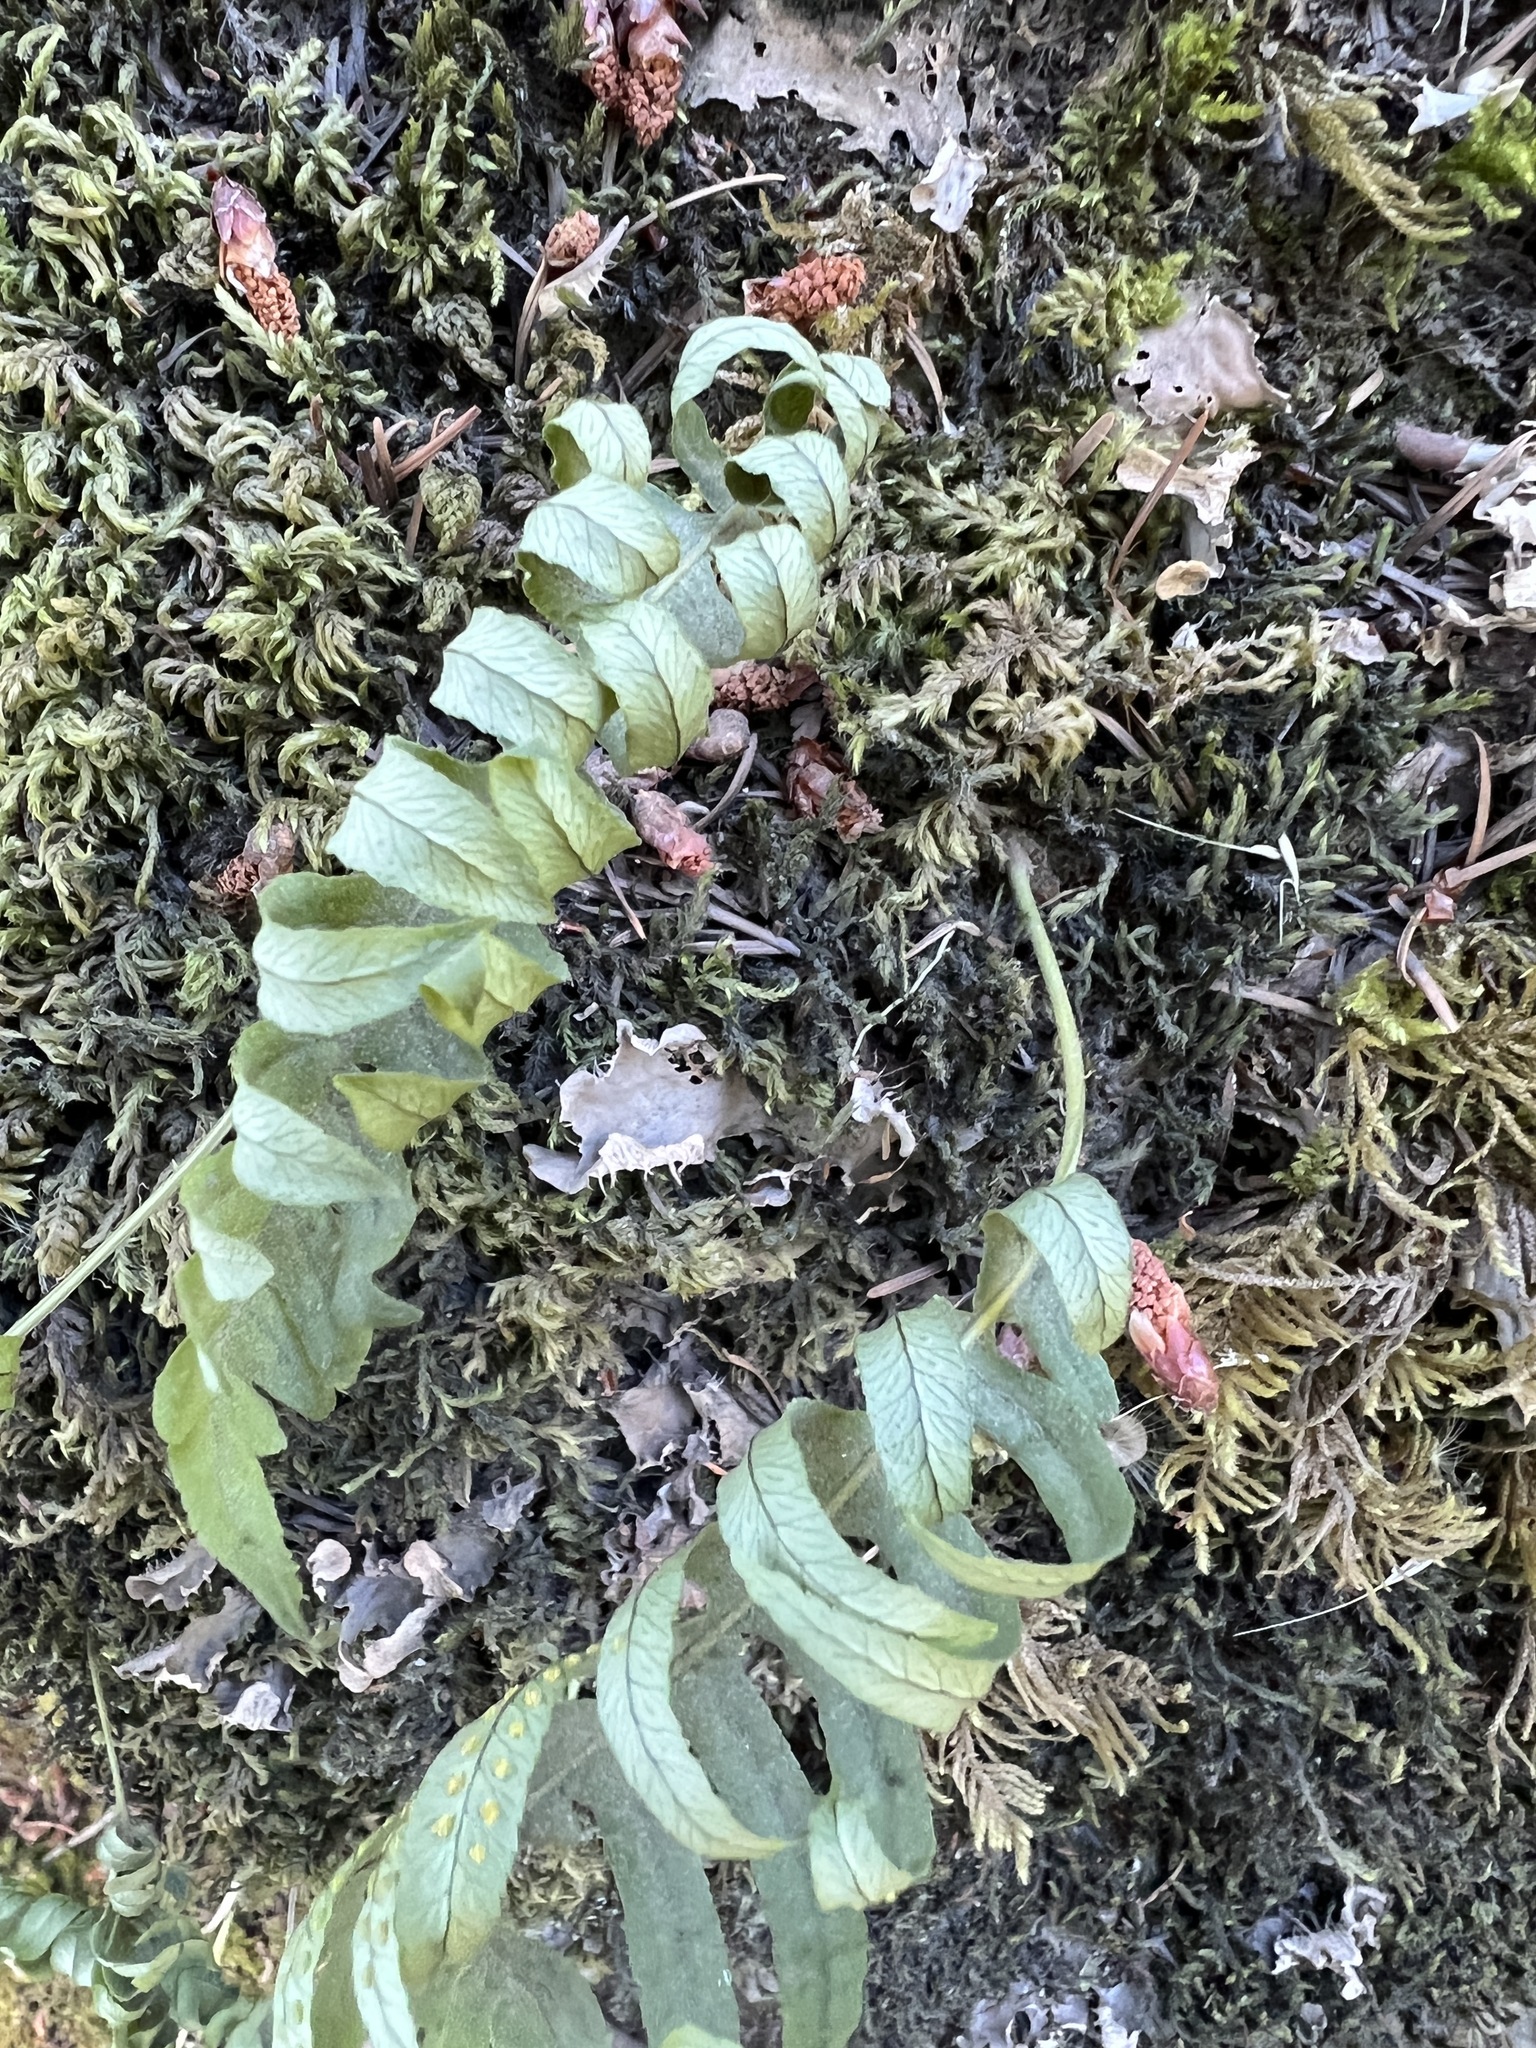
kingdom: Plantae
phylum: Tracheophyta
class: Polypodiopsida
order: Polypodiales
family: Polypodiaceae
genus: Polypodium
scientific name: Polypodium glycyrrhiza
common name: Licorice fern
